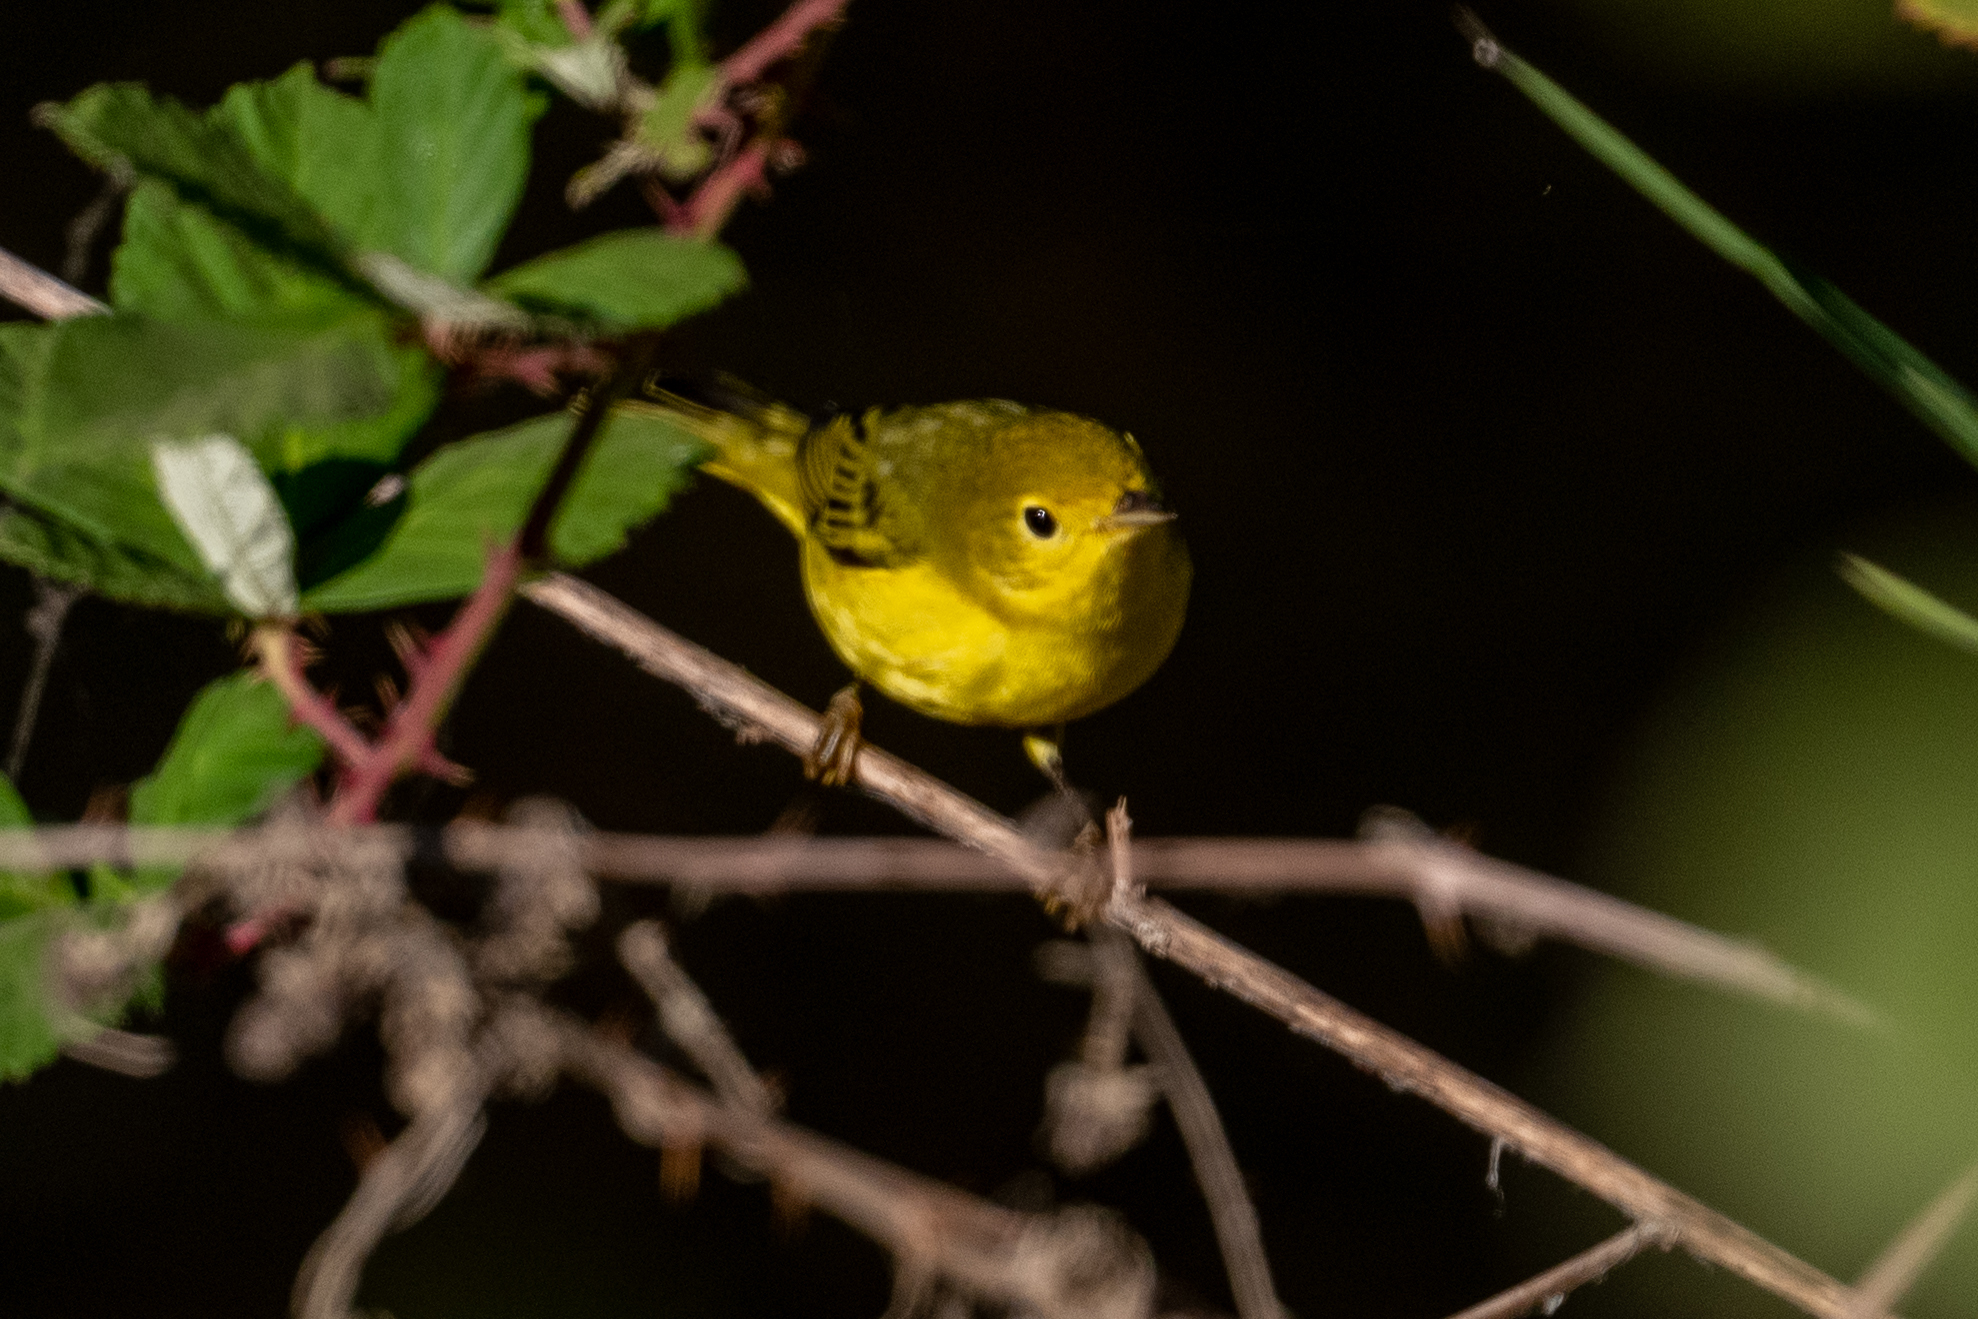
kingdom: Animalia
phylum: Chordata
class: Aves
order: Passeriformes
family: Parulidae
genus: Setophaga
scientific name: Setophaga petechia
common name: Yellow warbler
